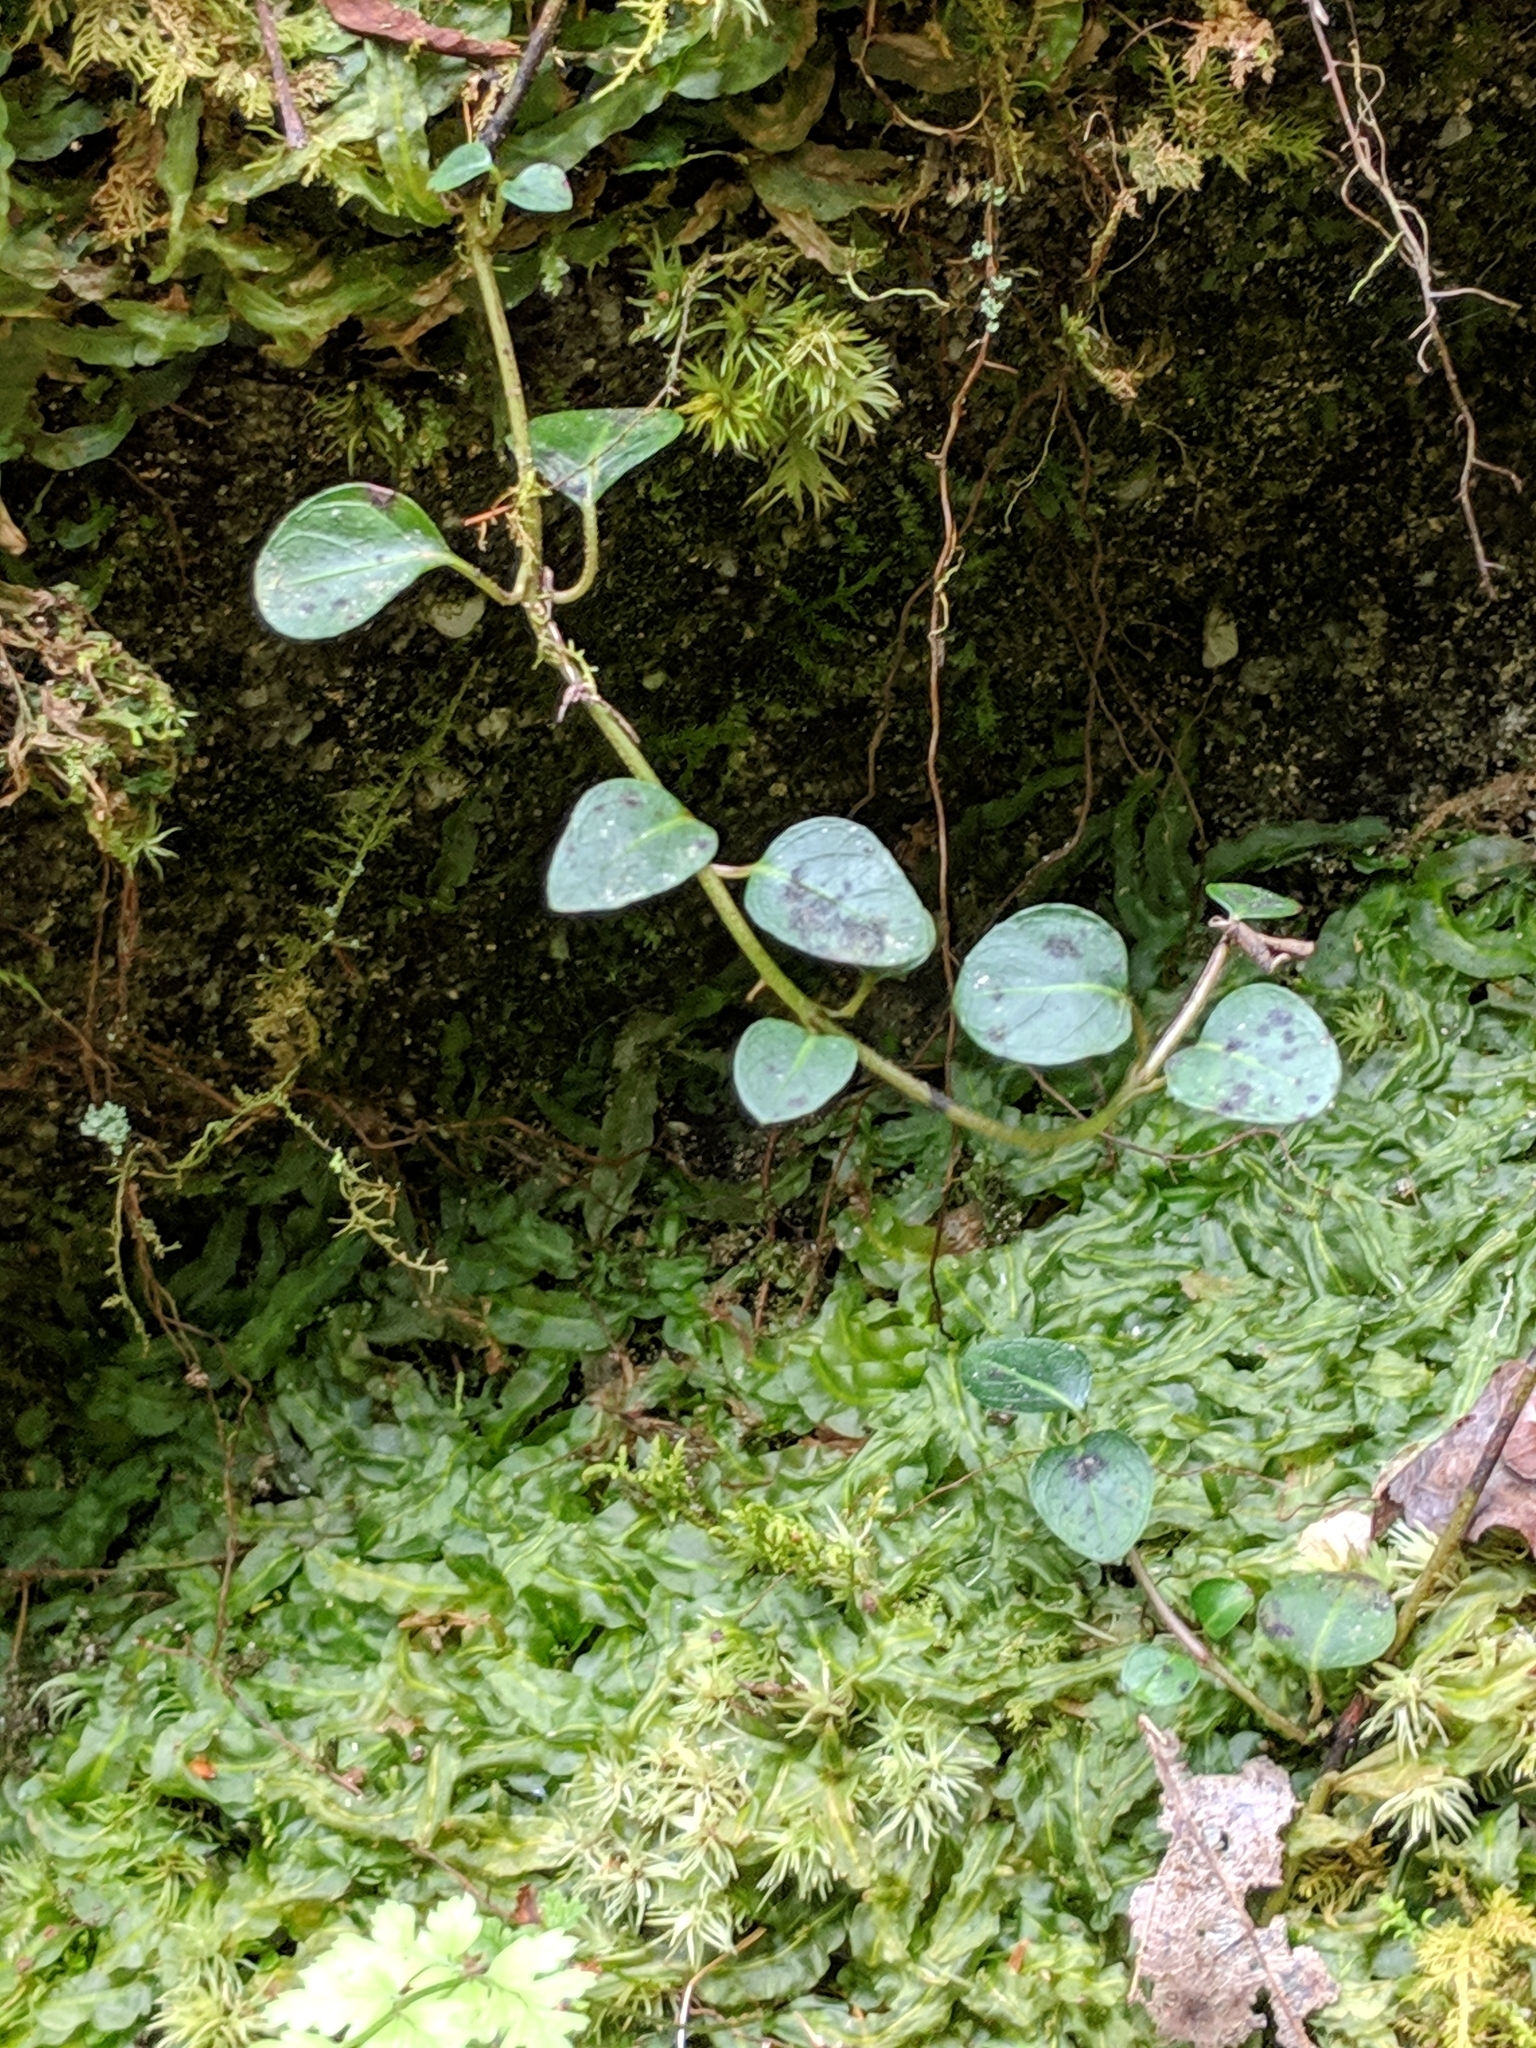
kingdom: Plantae
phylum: Tracheophyta
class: Magnoliopsida
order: Gentianales
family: Rubiaceae
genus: Mitchella
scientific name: Mitchella repens
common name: Partridge-berry
